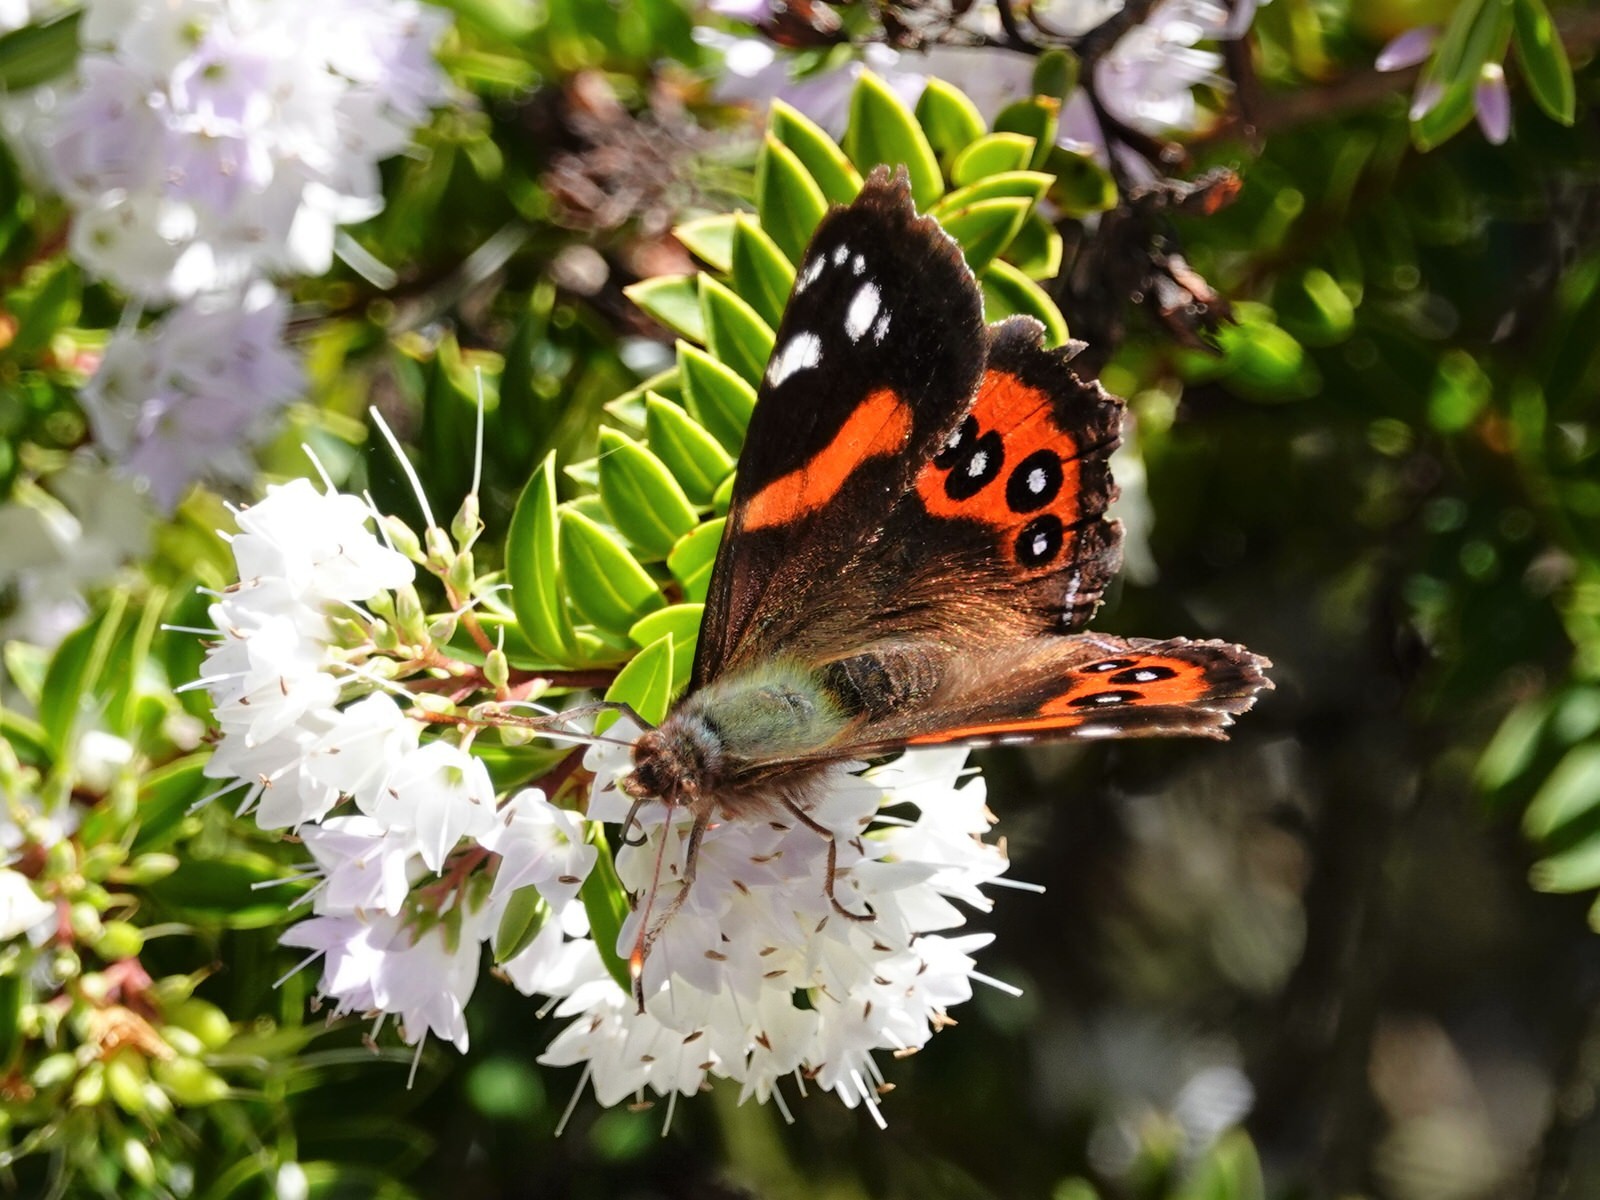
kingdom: Animalia
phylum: Arthropoda
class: Insecta
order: Lepidoptera
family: Nymphalidae
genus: Vanessa
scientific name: Vanessa gonerilla
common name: New zealand red admiral
